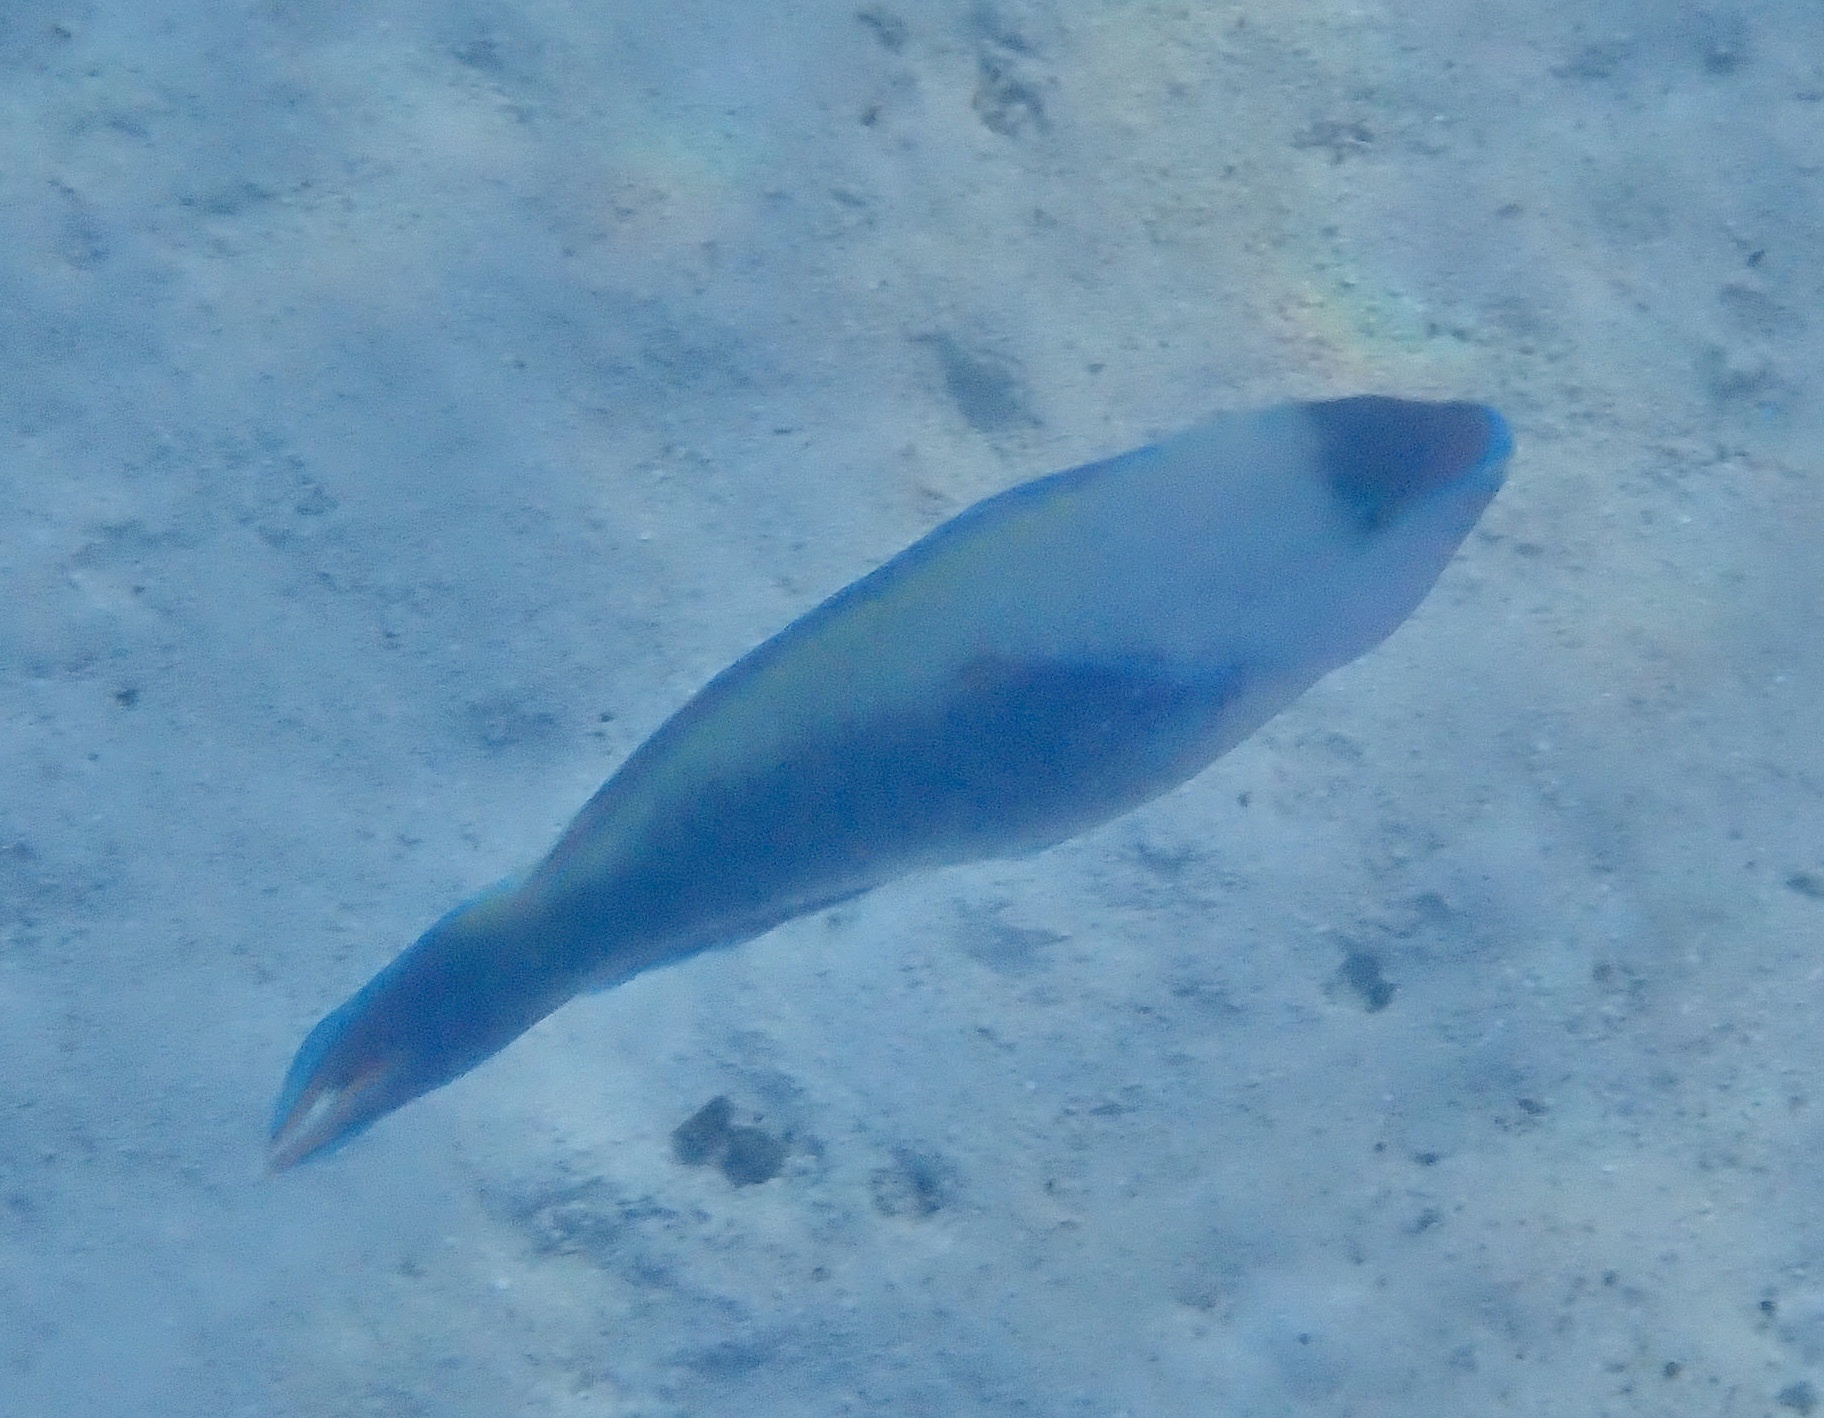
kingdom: Animalia
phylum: Chordata
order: Perciformes
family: Scaridae
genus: Scarus
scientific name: Scarus psittacus
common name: Palenose parrotfish
